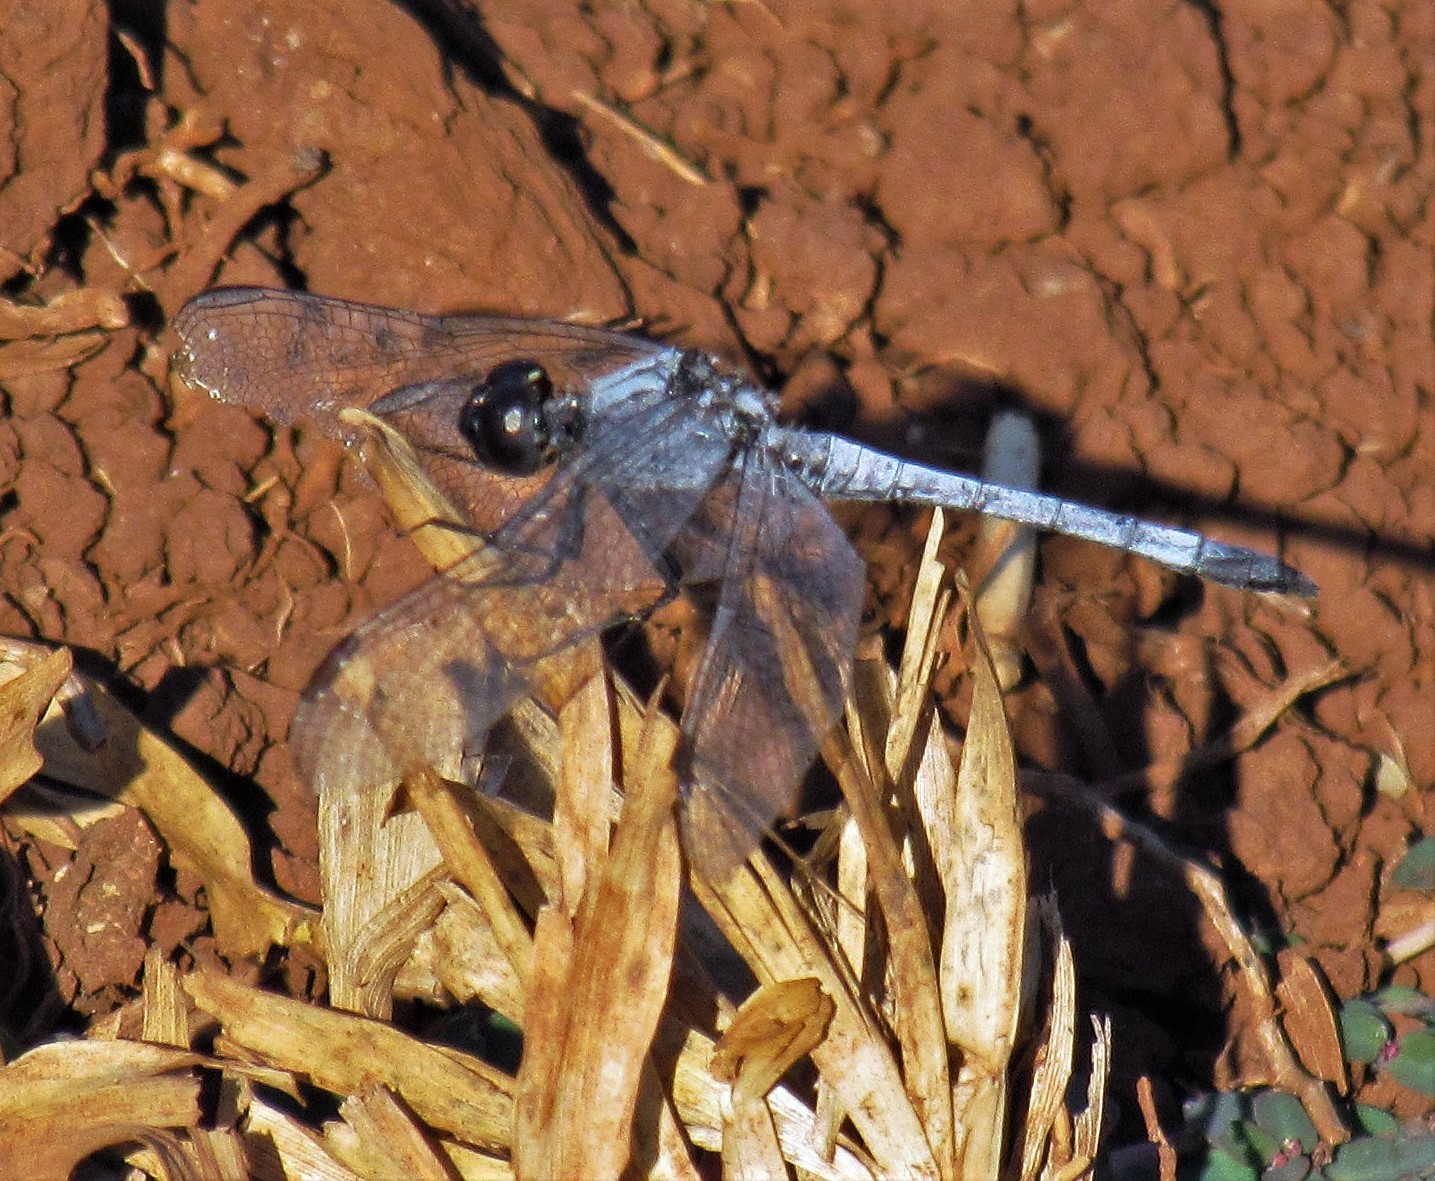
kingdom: Animalia
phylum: Arthropoda
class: Insecta
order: Odonata
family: Libellulidae
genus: Erythrodiplax
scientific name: Erythrodiplax paraguayensis
